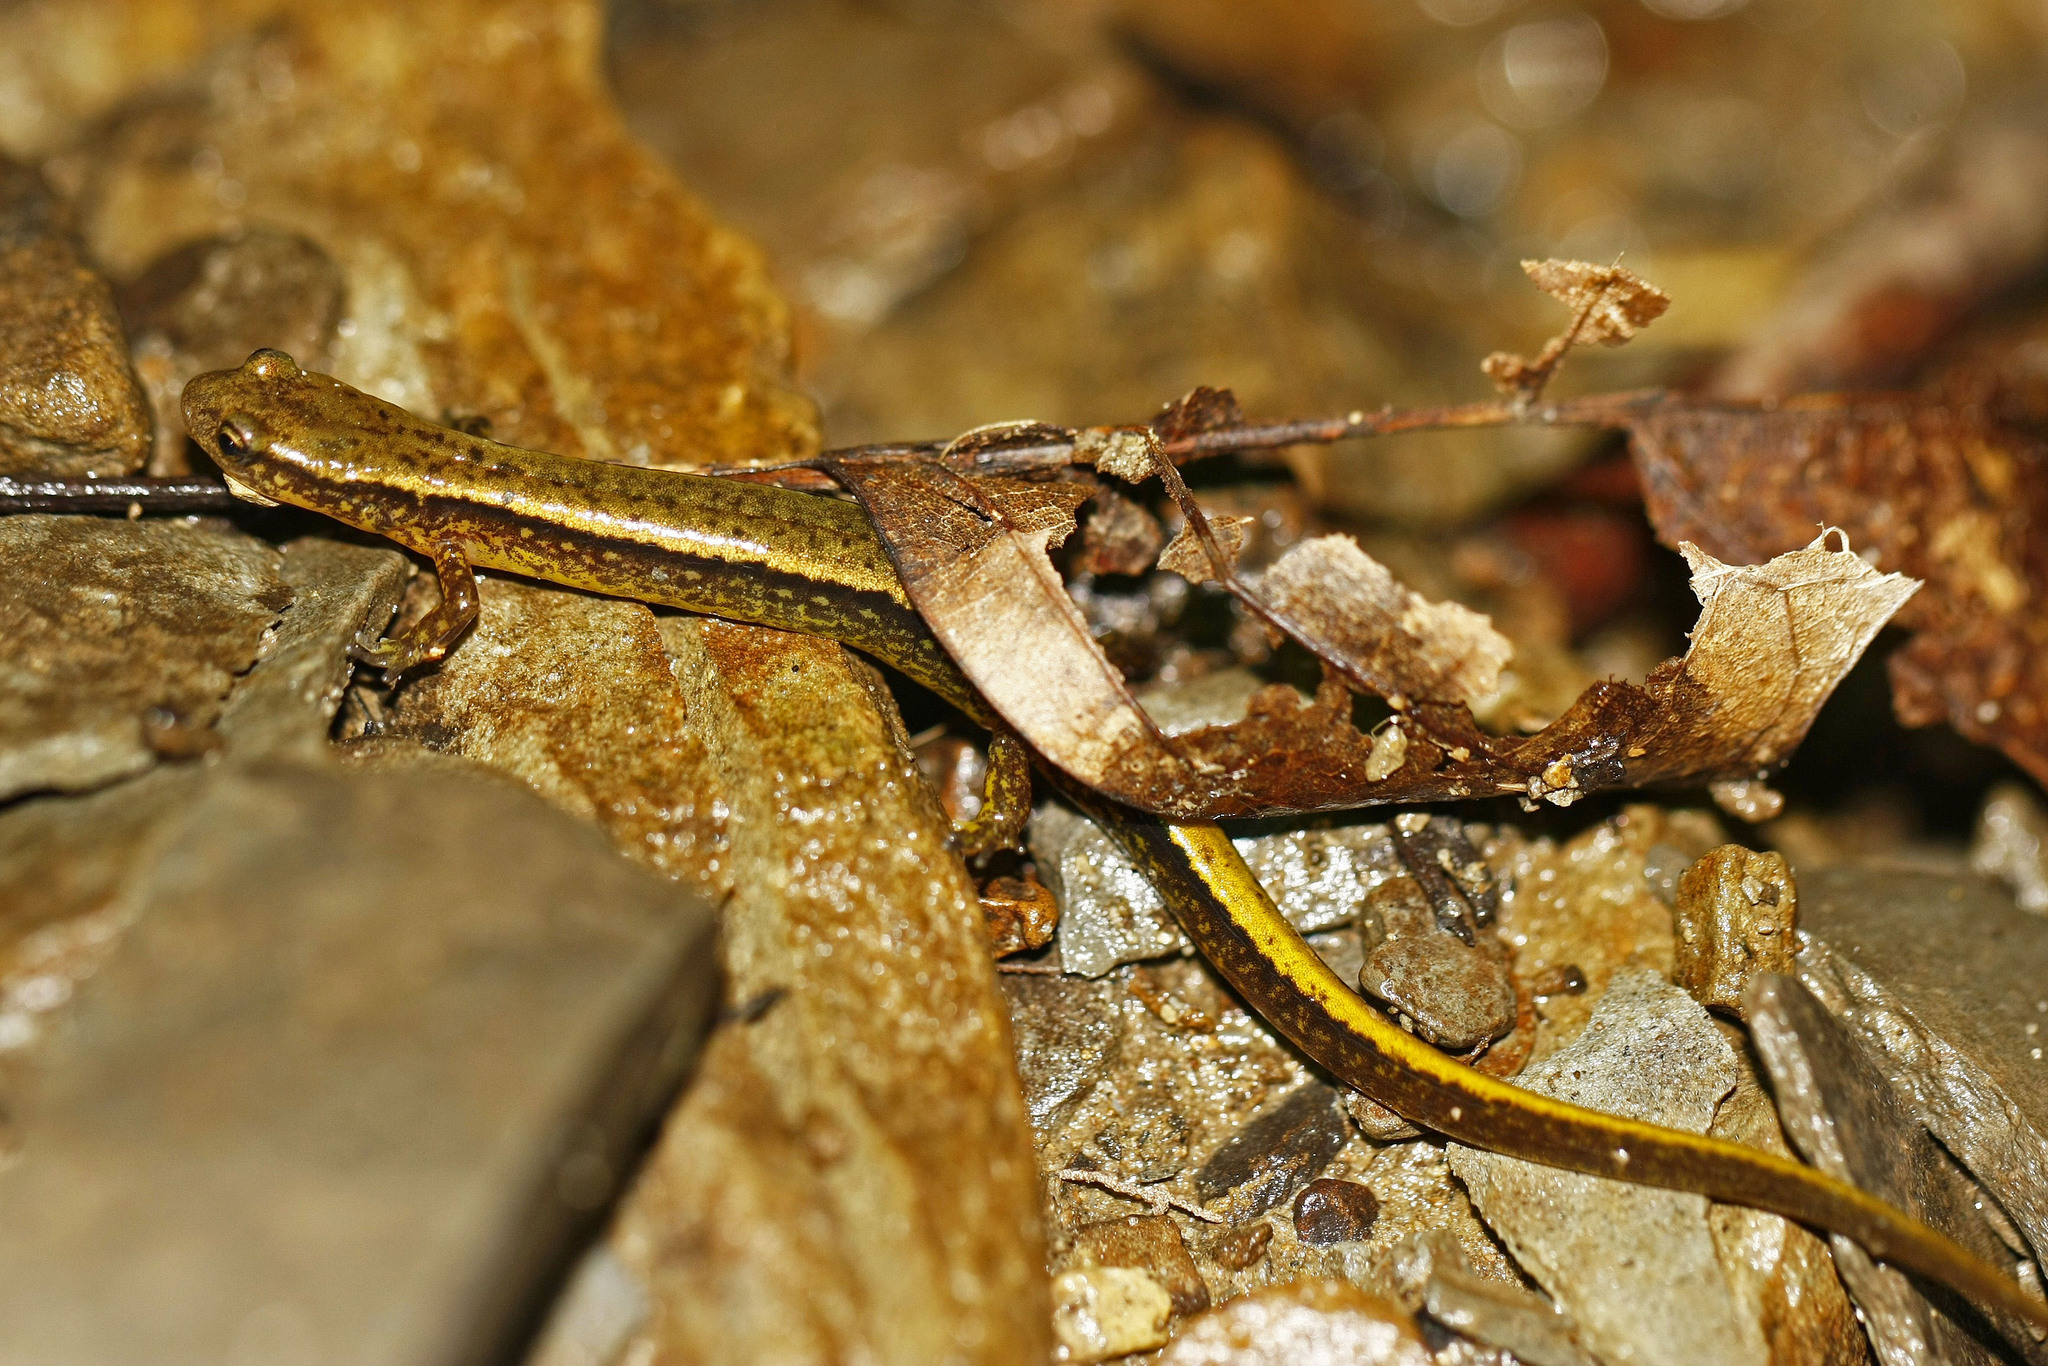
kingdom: Animalia
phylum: Chordata
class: Amphibia
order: Caudata
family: Plethodontidae
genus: Eurycea
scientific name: Eurycea bislineata
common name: Northern two-lined salamander
